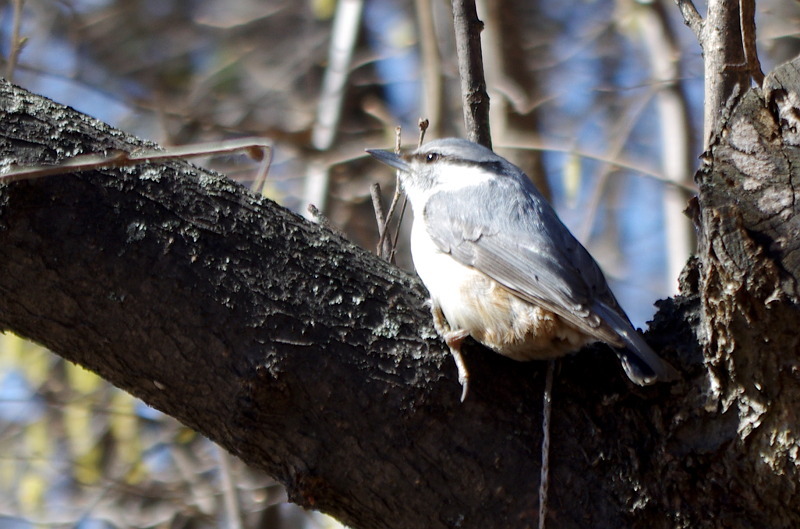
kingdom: Animalia
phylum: Chordata
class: Aves
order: Passeriformes
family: Sittidae
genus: Sitta
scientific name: Sitta europaea
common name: Eurasian nuthatch
